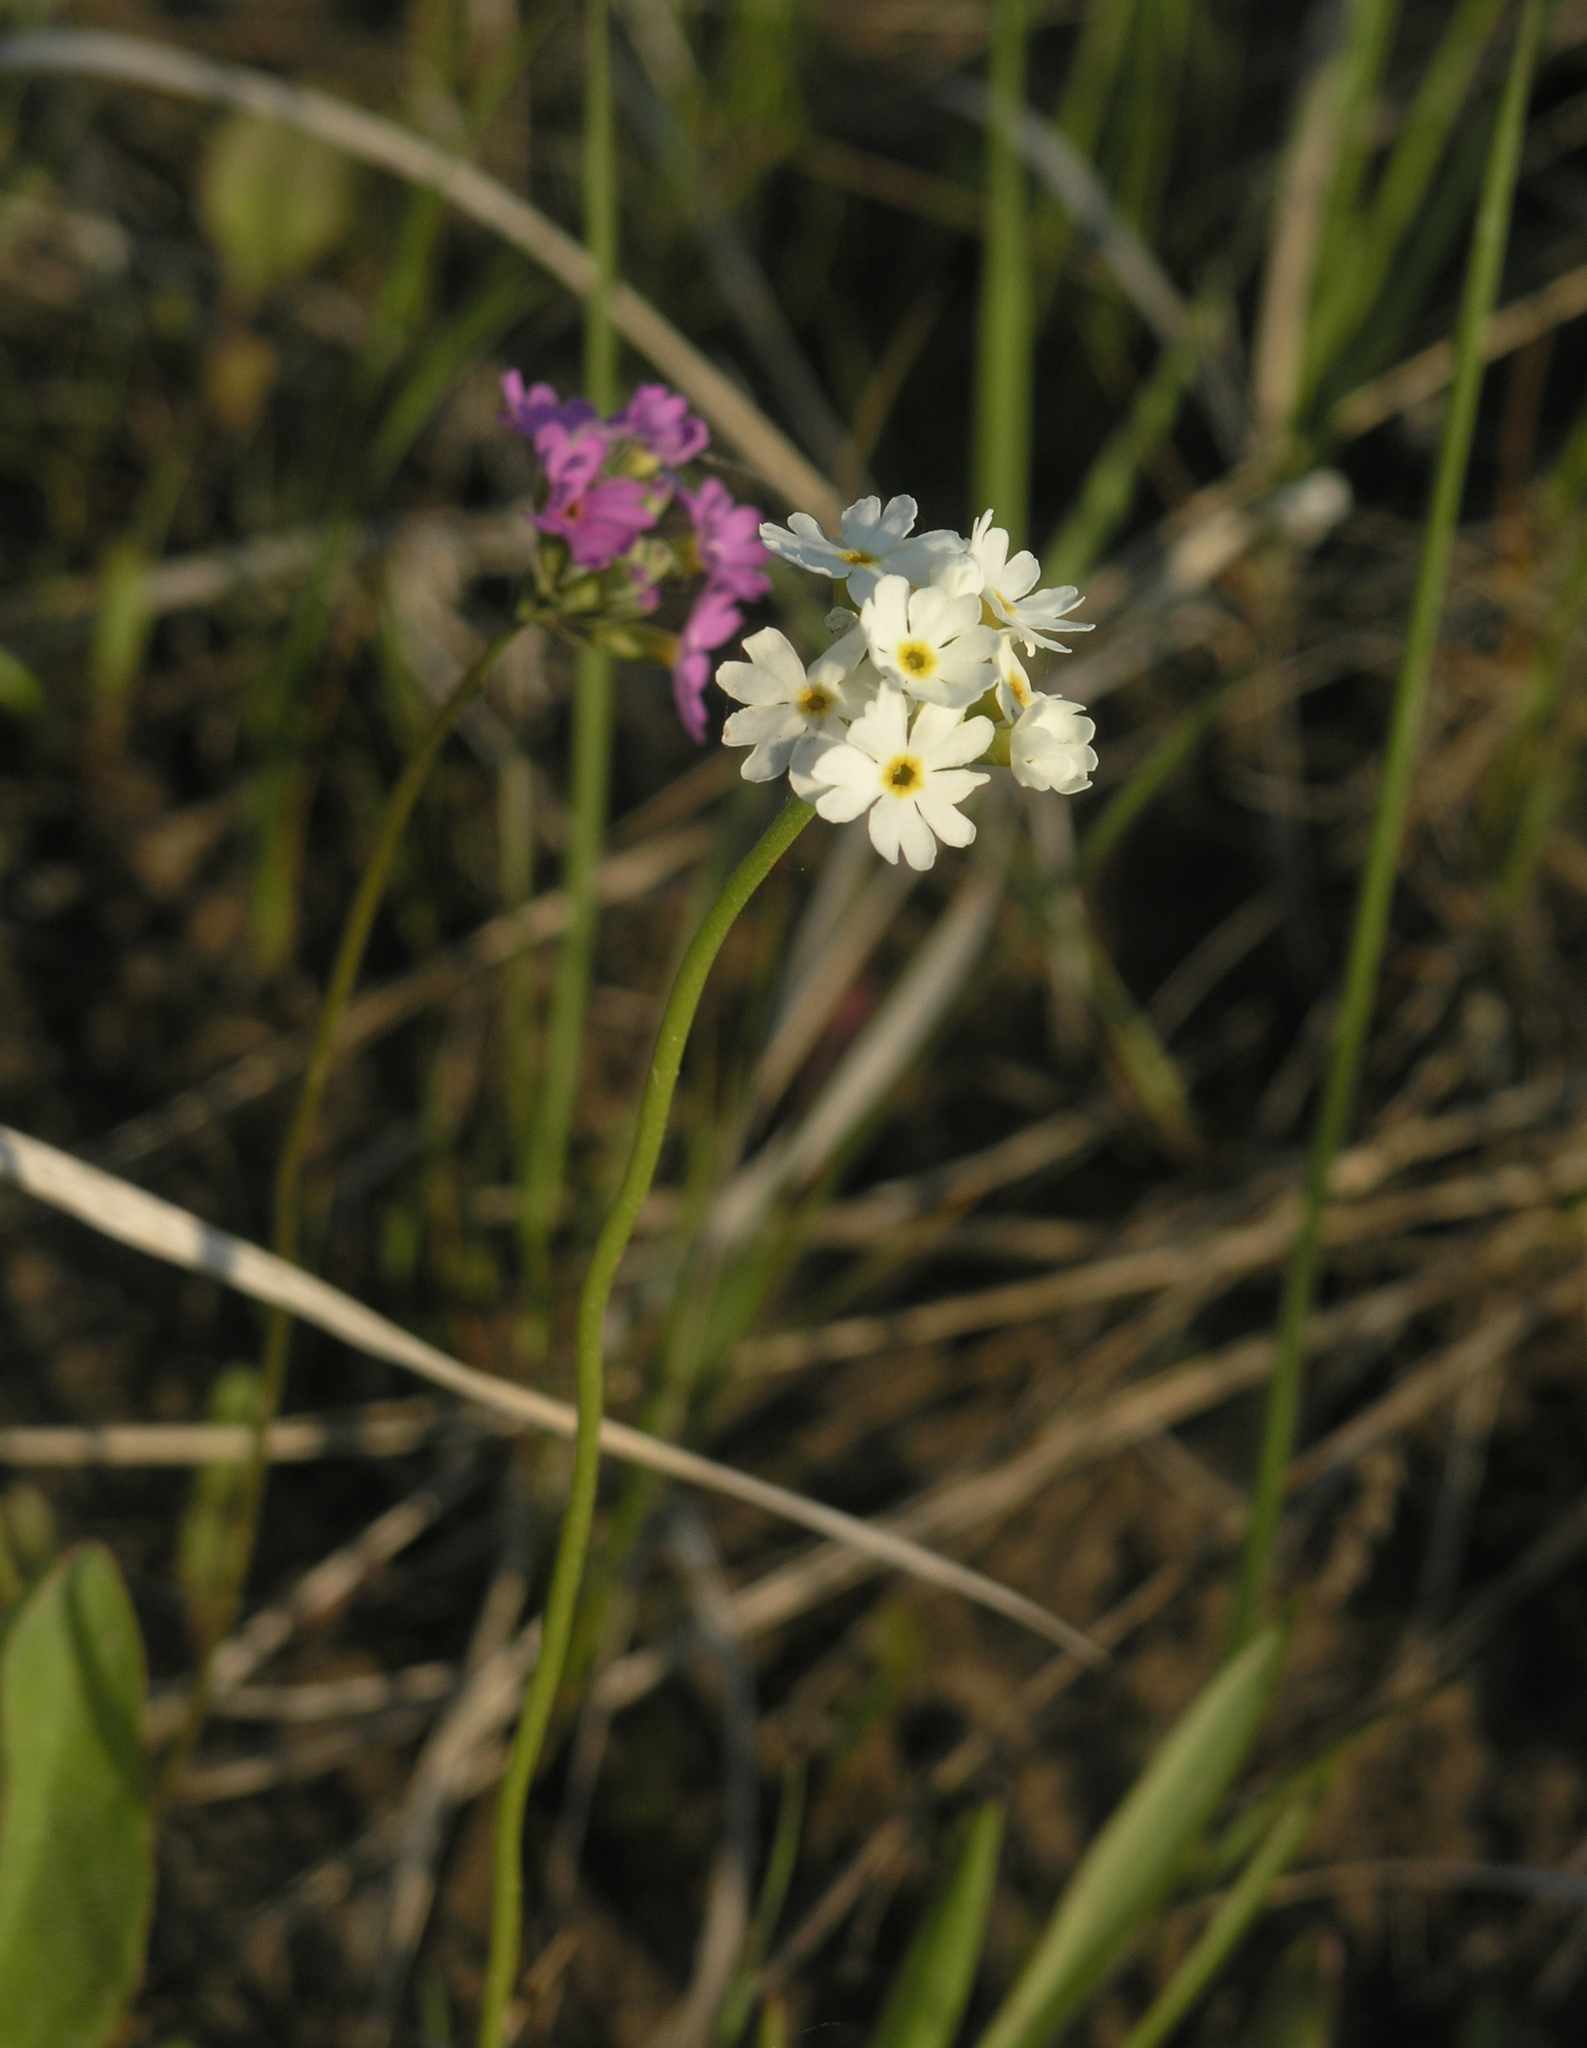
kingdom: Plantae
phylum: Tracheophyta
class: Magnoliopsida
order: Ericales
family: Primulaceae
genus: Primula
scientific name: Primula longiscapa
